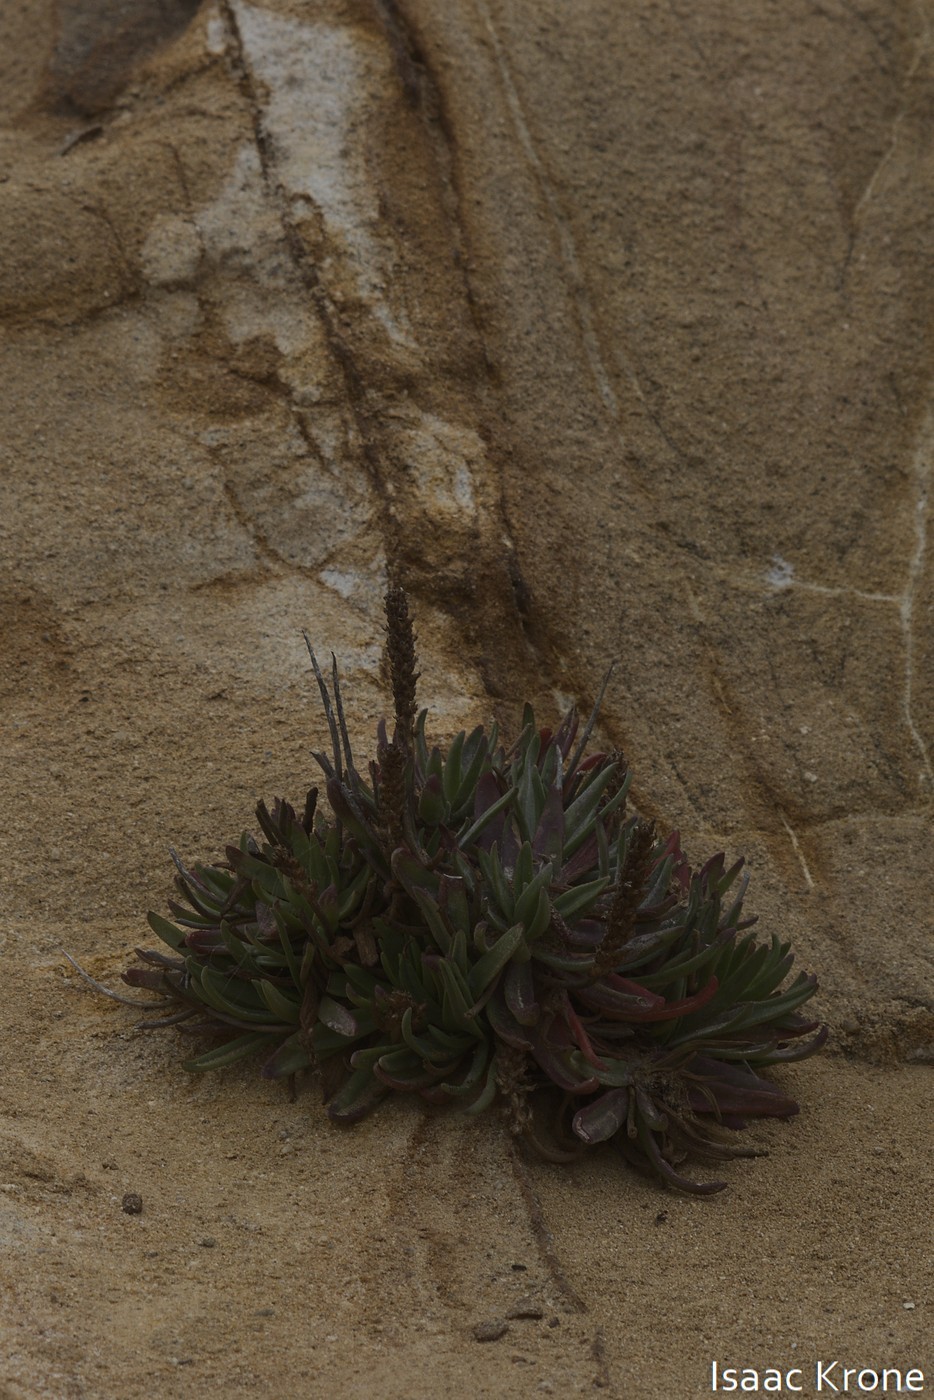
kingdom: Plantae
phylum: Tracheophyta
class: Magnoliopsida
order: Lamiales
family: Plantaginaceae
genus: Plantago
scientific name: Plantago maritima
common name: Sea plantain
